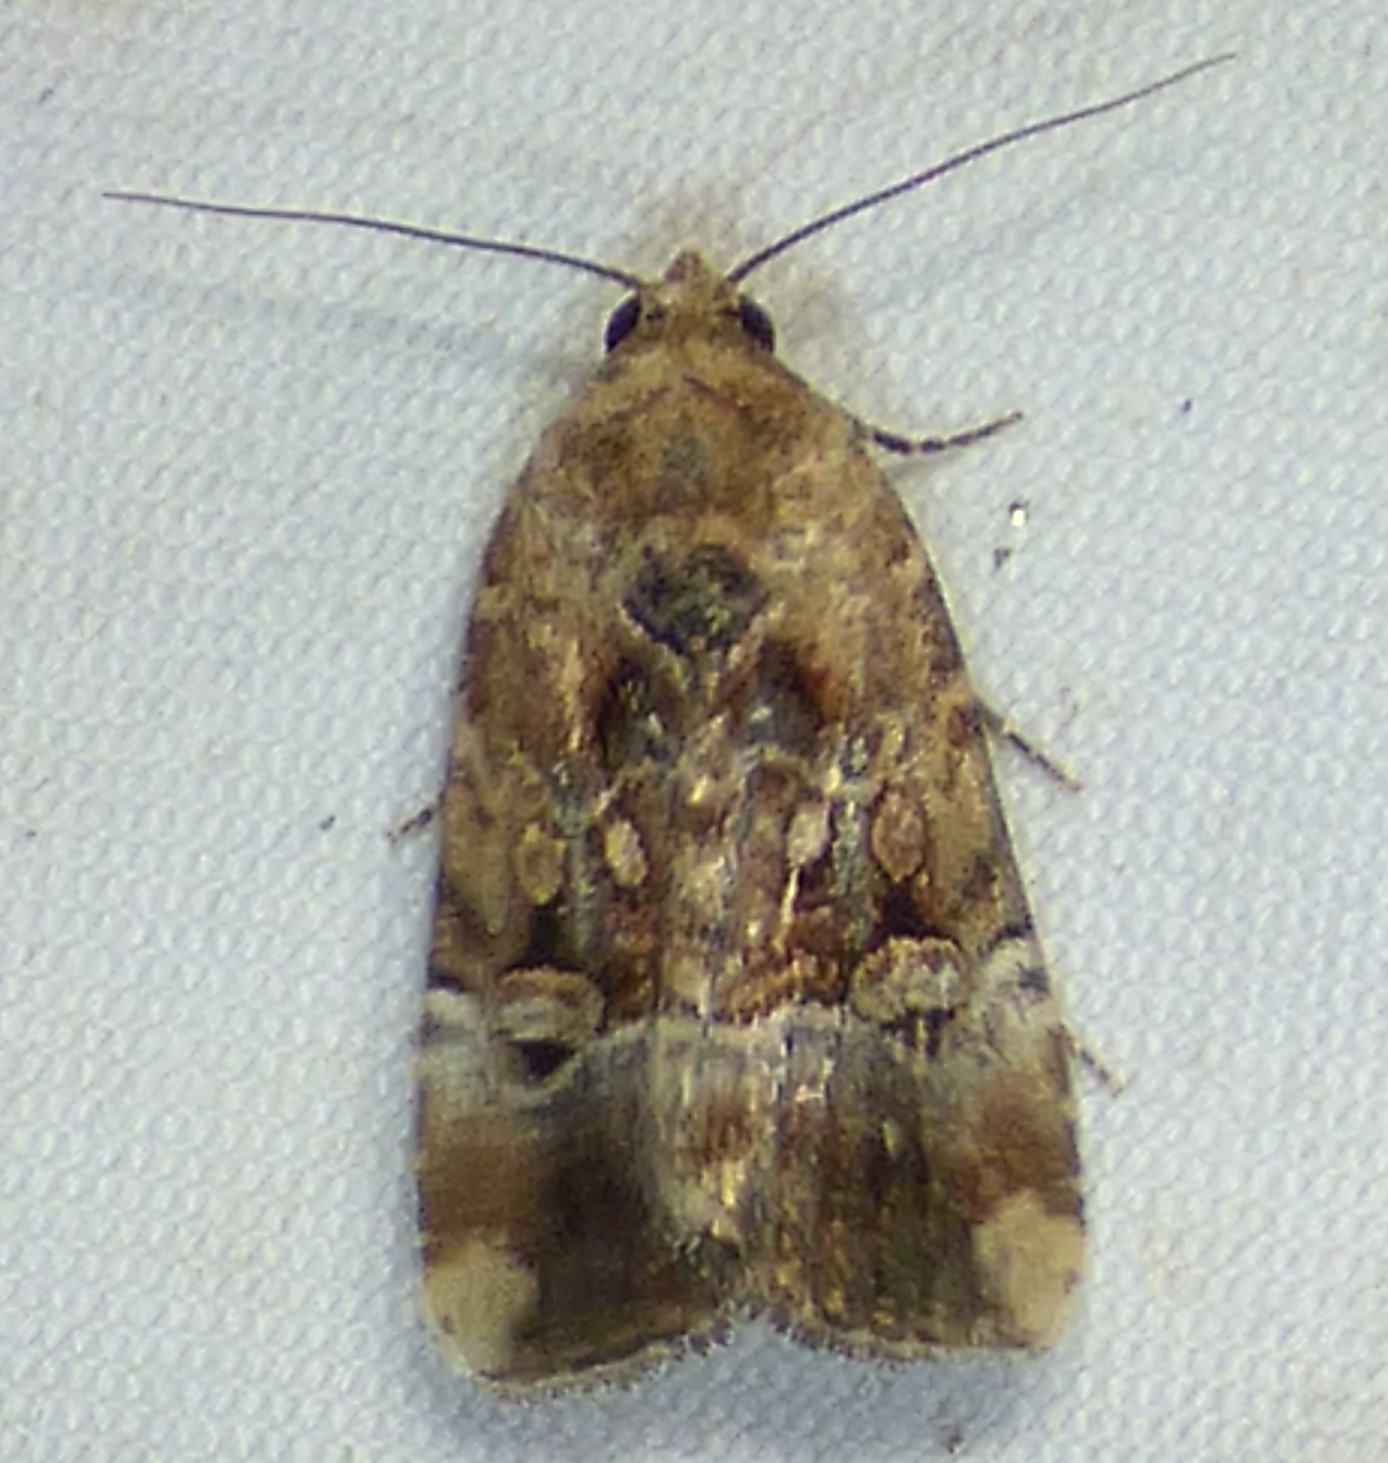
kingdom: Animalia
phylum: Arthropoda
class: Insecta
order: Lepidoptera
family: Noctuidae
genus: Elaphria
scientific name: Elaphria chalcedonia
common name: Chalcedony midget
